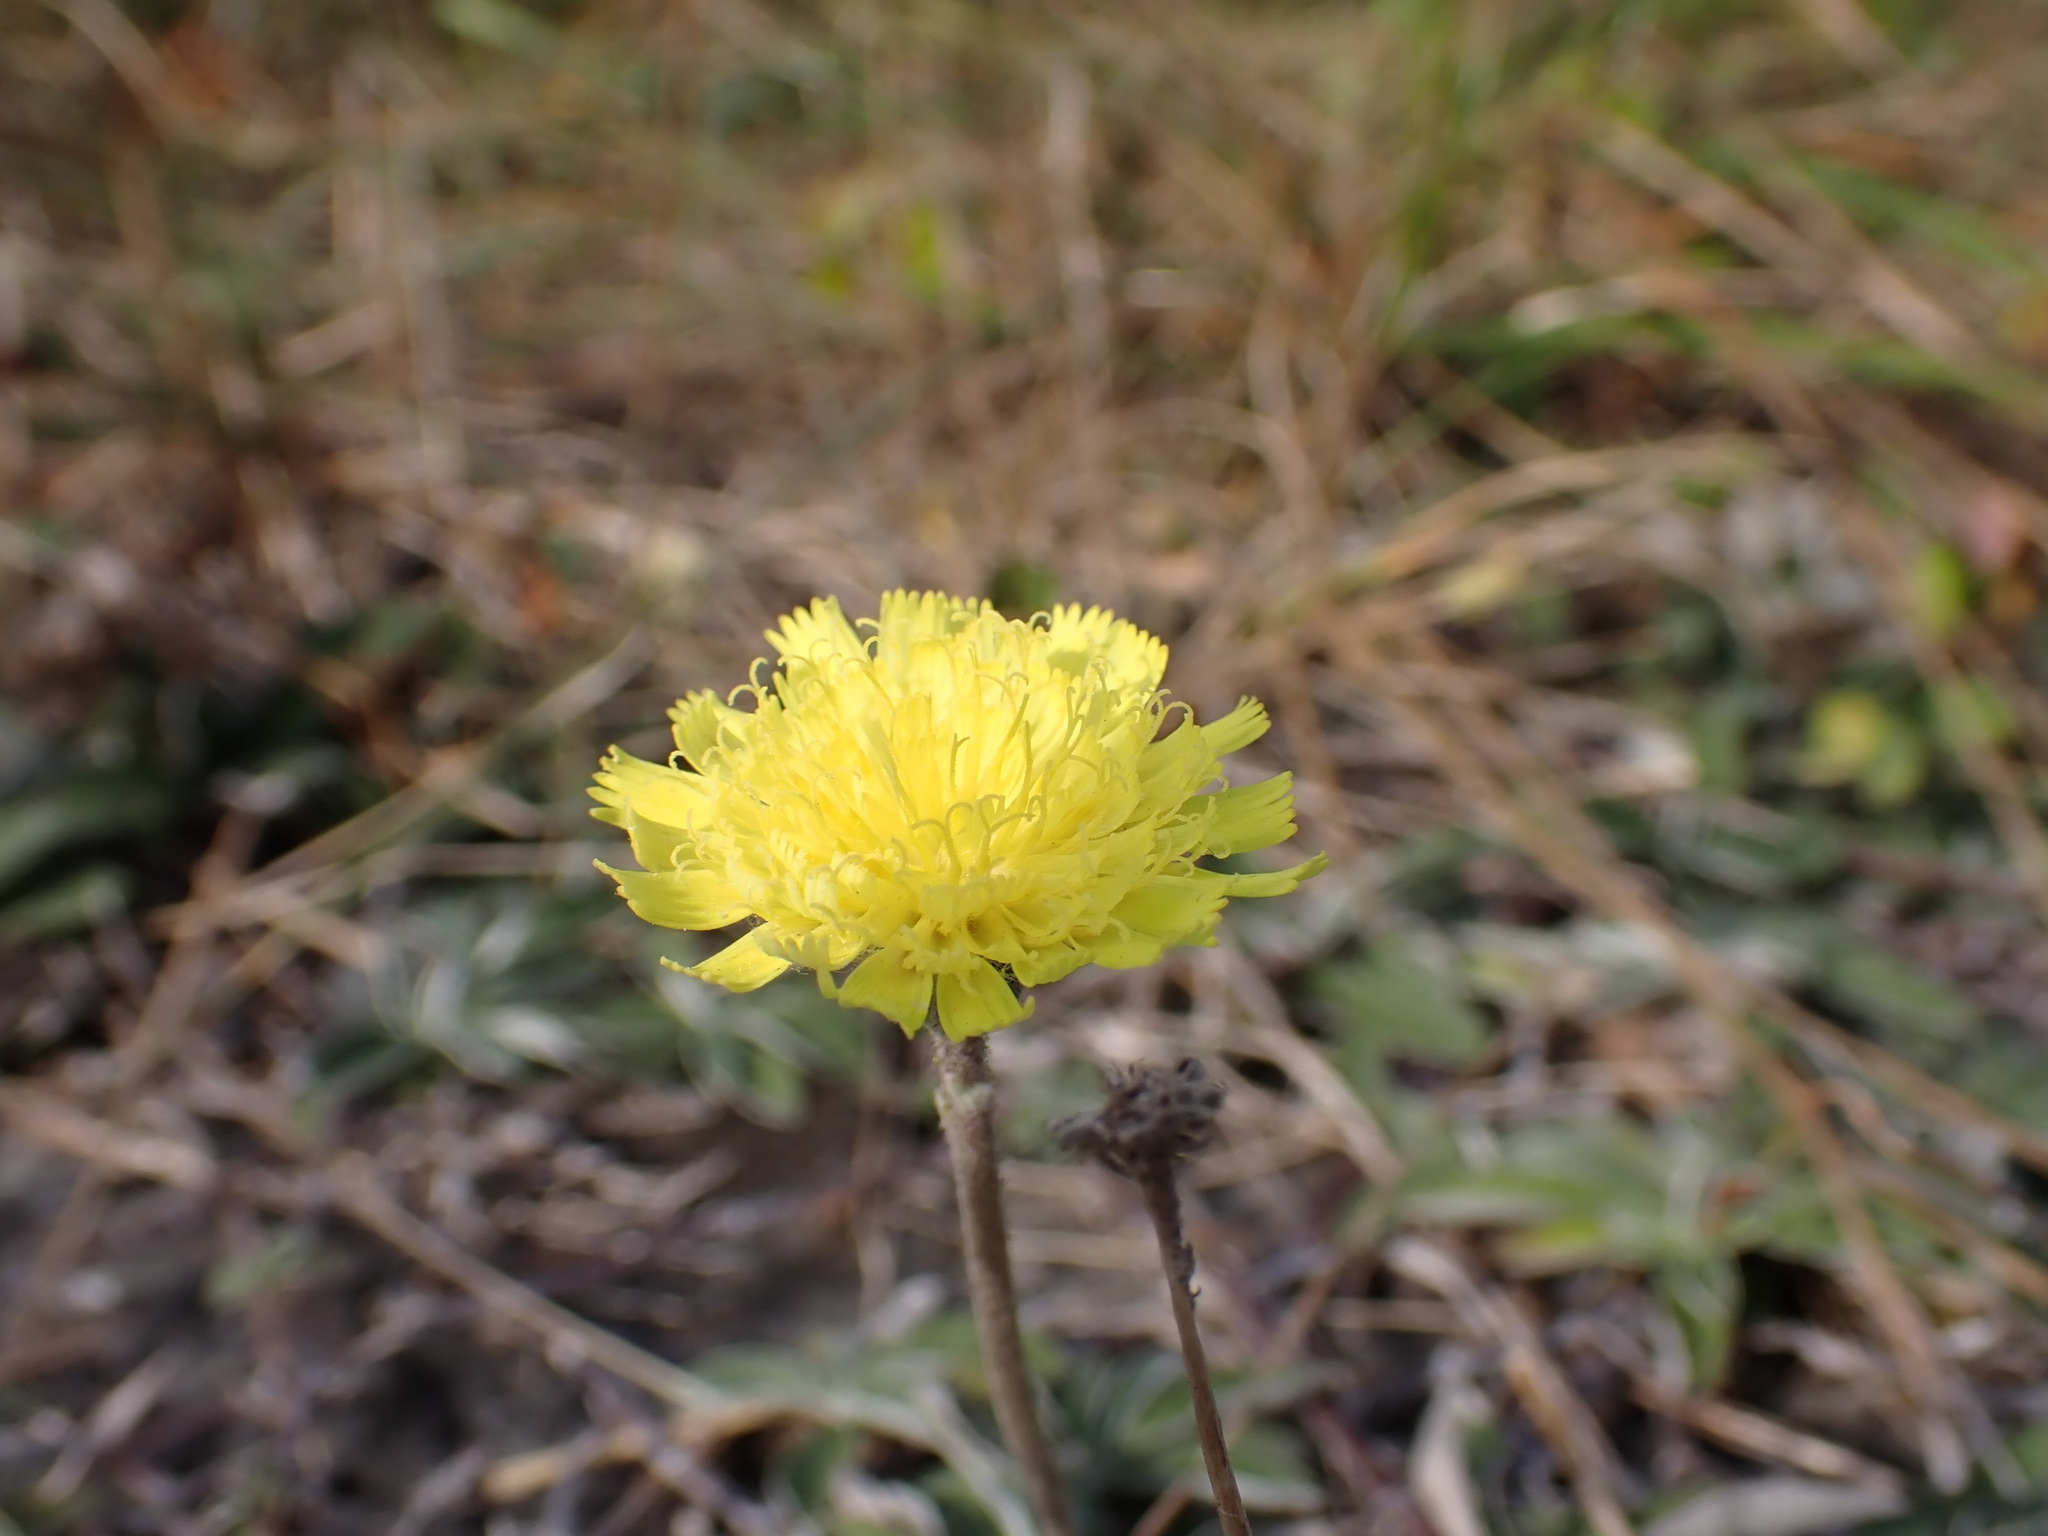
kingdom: Plantae
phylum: Tracheophyta
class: Magnoliopsida
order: Asterales
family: Asteraceae
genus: Pilosella
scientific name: Pilosella officinarum
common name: Mouse-ear hawkweed
